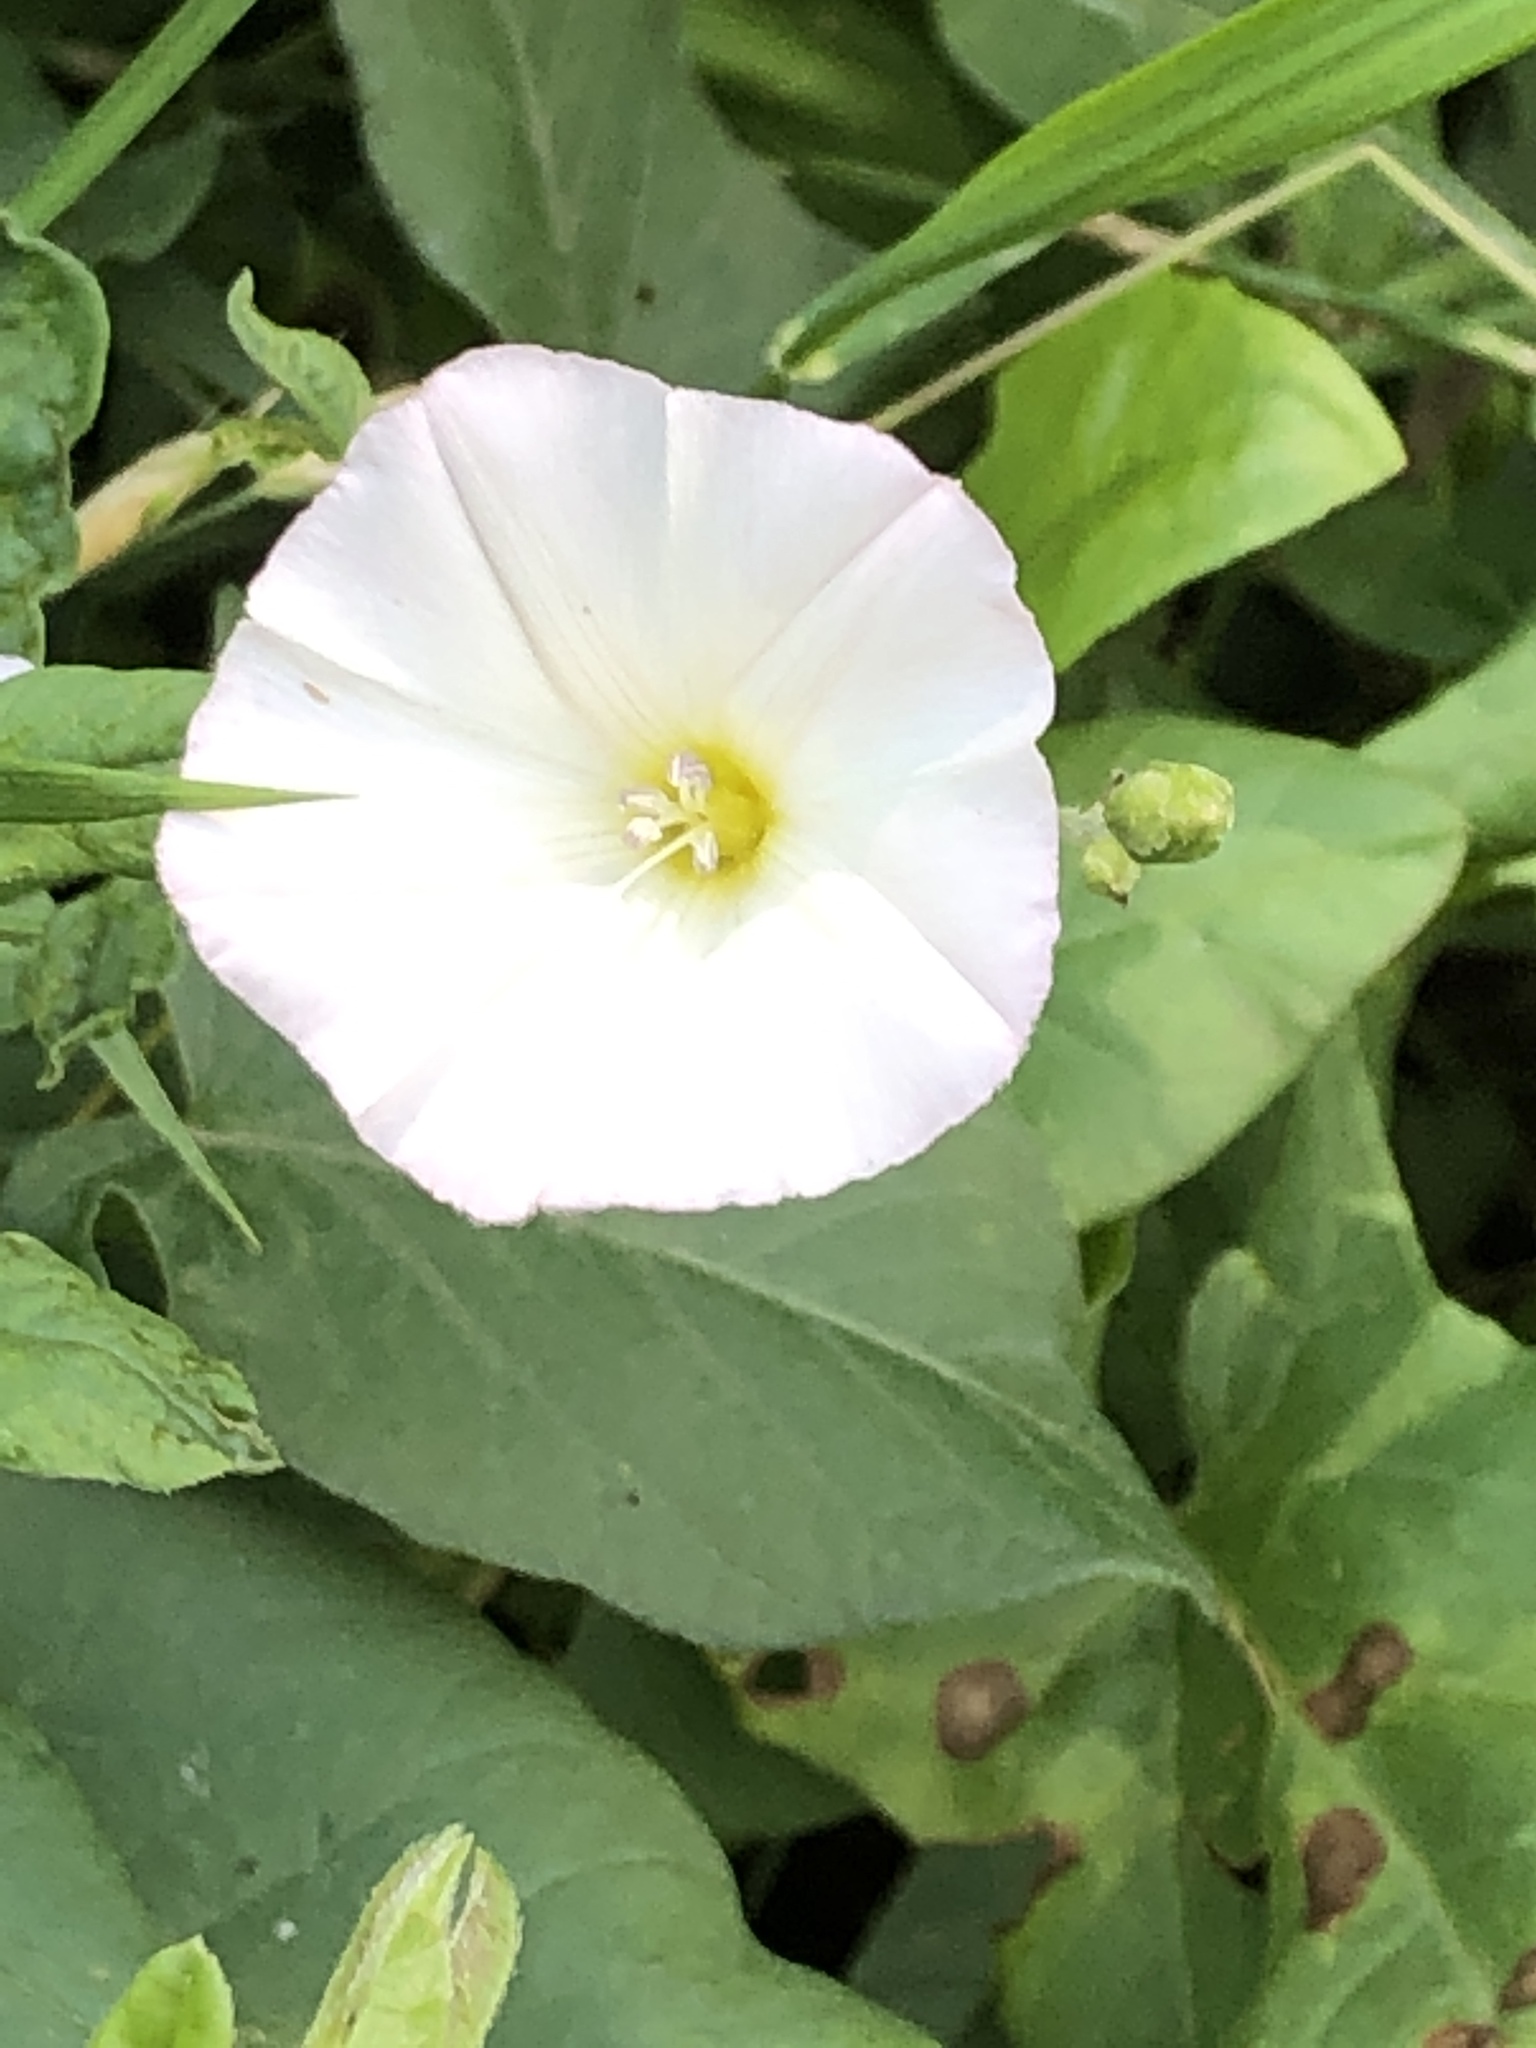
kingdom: Plantae
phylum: Tracheophyta
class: Magnoliopsida
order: Solanales
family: Convolvulaceae
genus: Convolvulus
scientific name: Convolvulus arvensis
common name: Field bindweed
